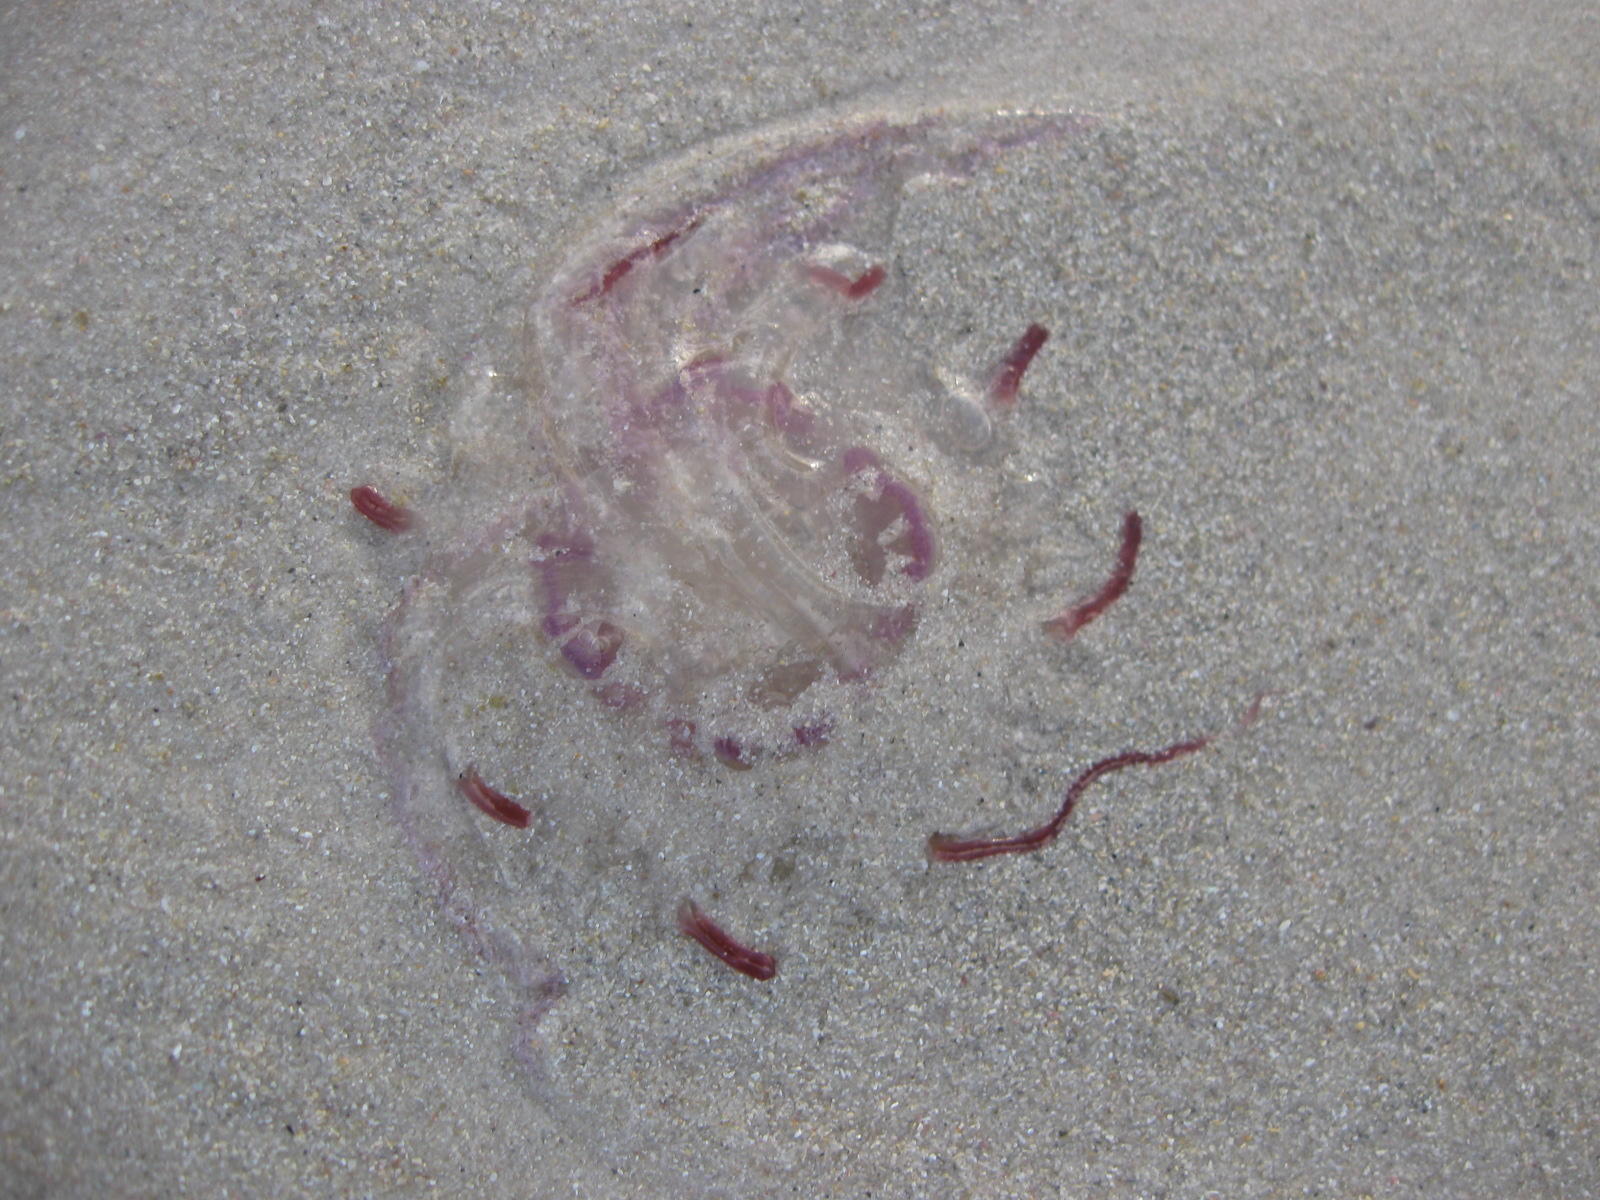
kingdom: Animalia
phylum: Cnidaria
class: Scyphozoa
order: Semaeostomeae
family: Pelagiidae
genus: Pelagia
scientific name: Pelagia noctiluca
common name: Mauve stinger
